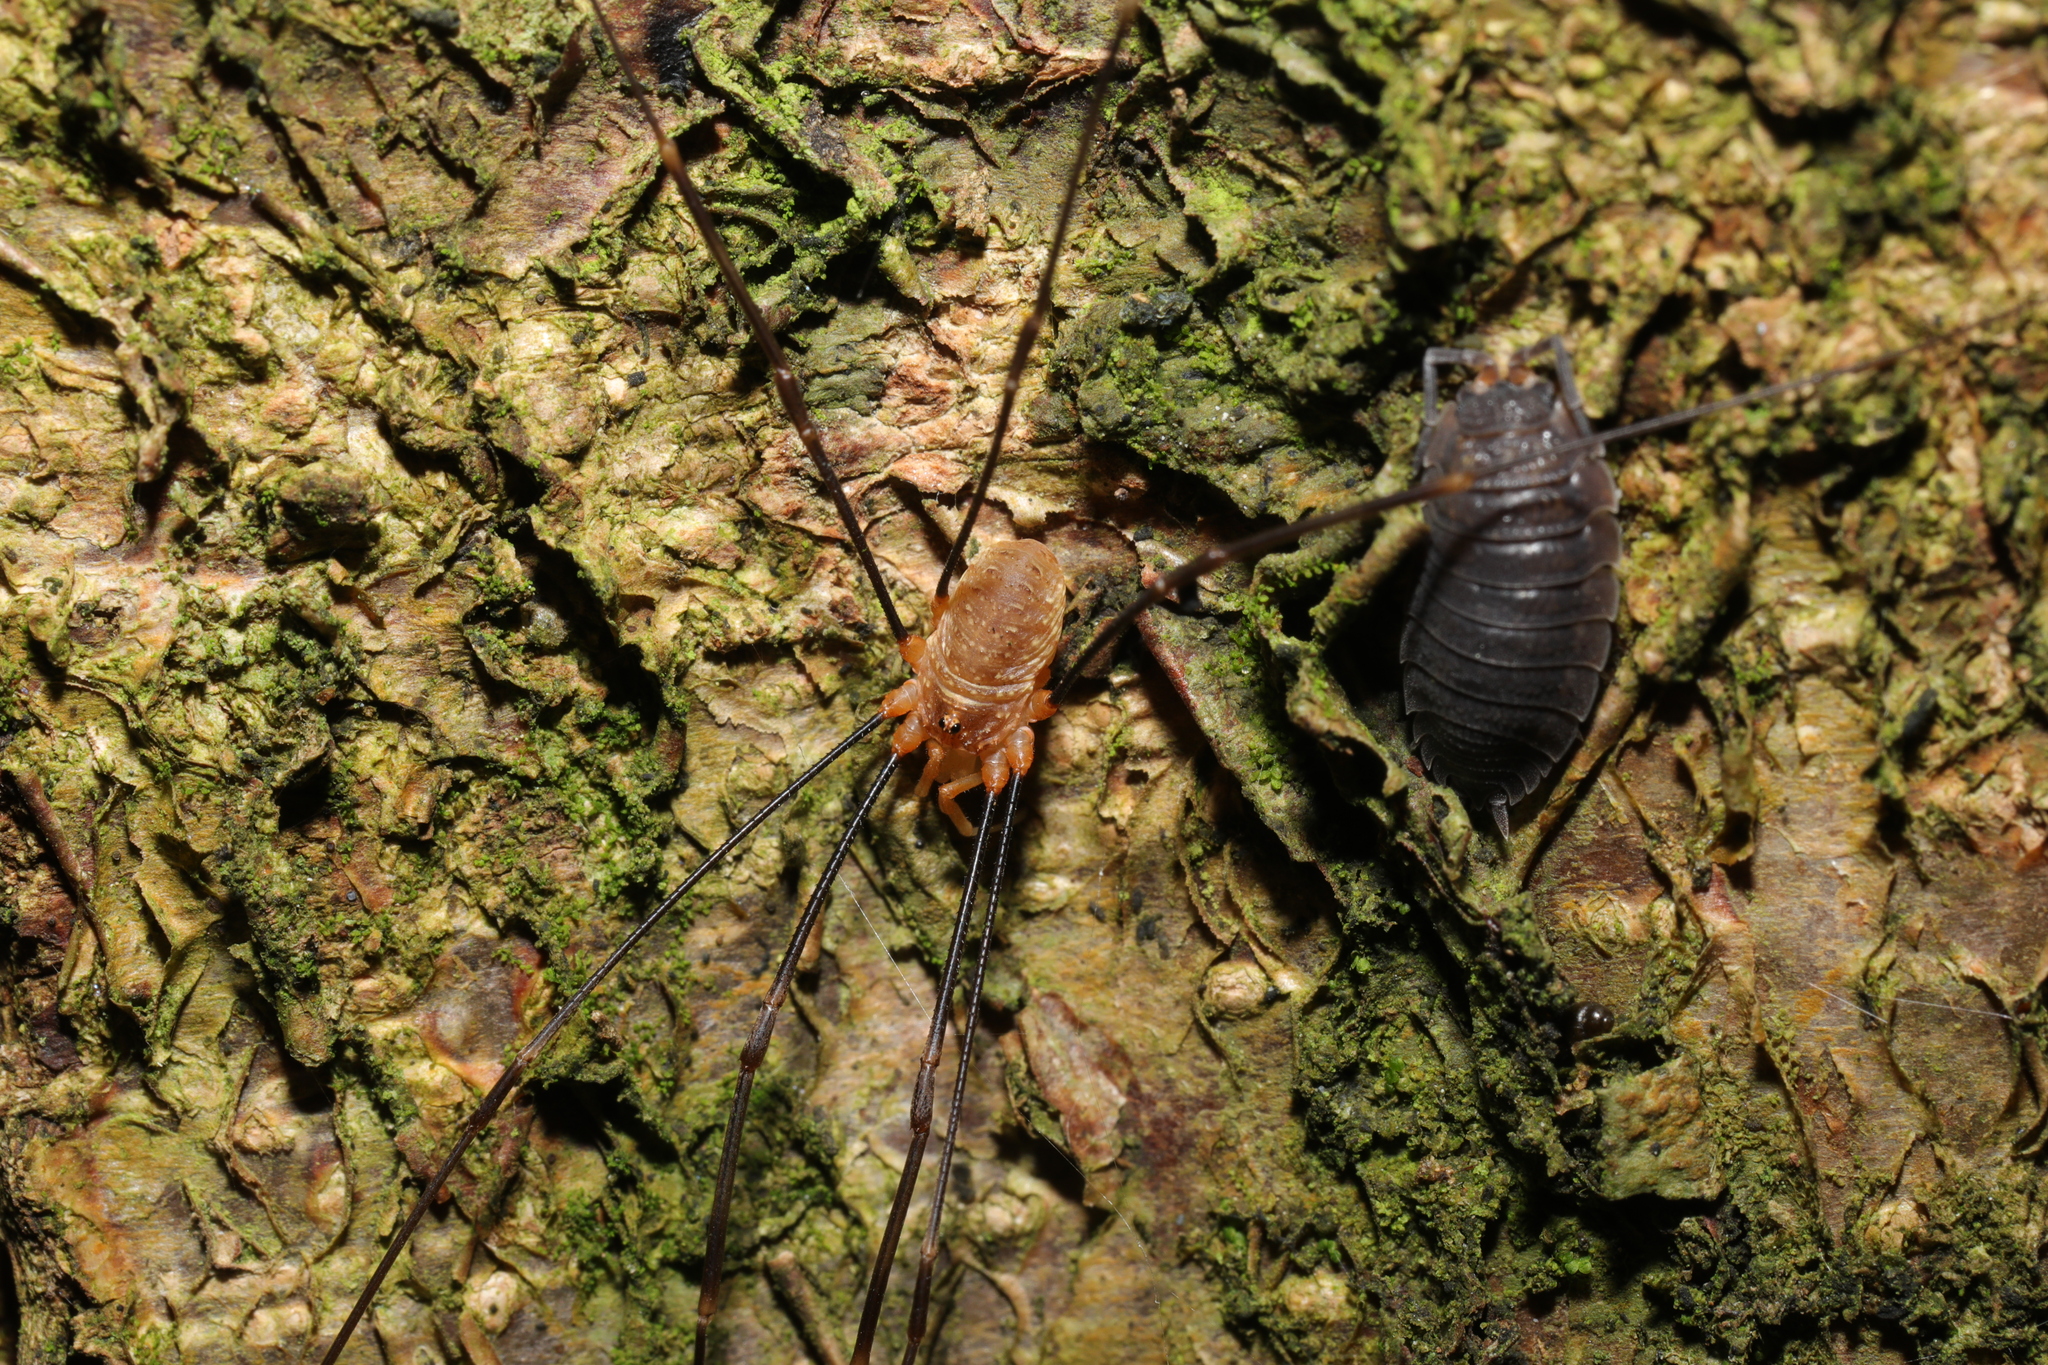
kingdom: Animalia
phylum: Arthropoda
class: Arachnida
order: Opiliones
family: Phalangiidae
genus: Opilio
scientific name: Opilio canestrinii
